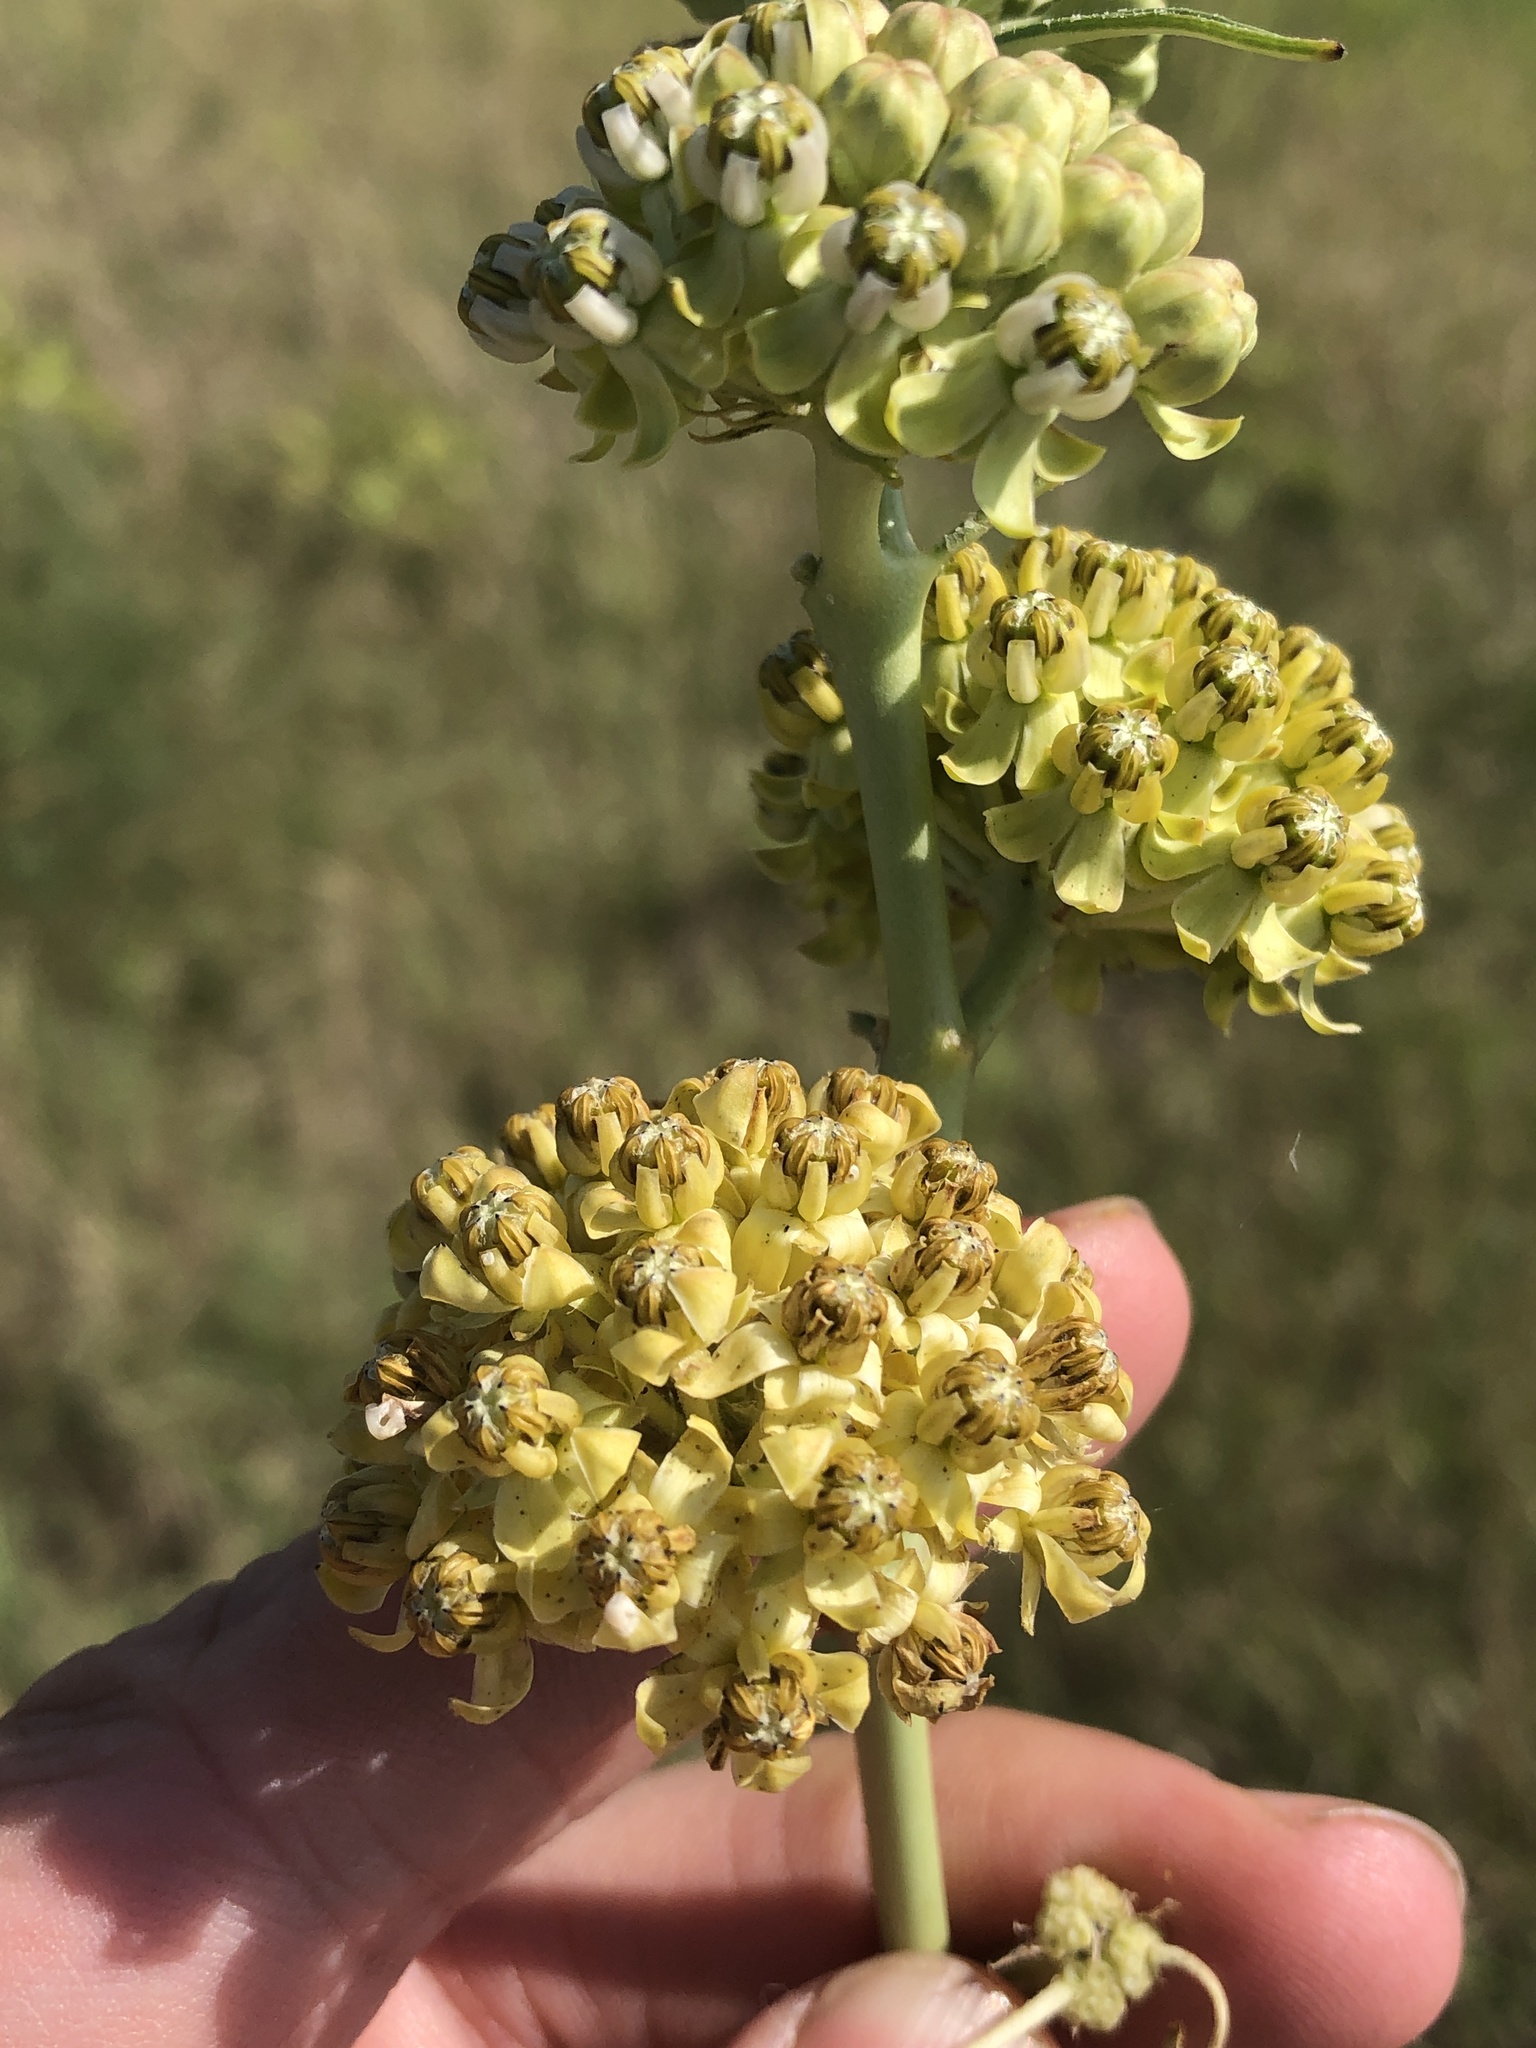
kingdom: Plantae
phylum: Tracheophyta
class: Magnoliopsida
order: Gentianales
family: Apocynaceae
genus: Asclepias
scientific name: Asclepias engelmanniana
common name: Engelmann's milkweed
